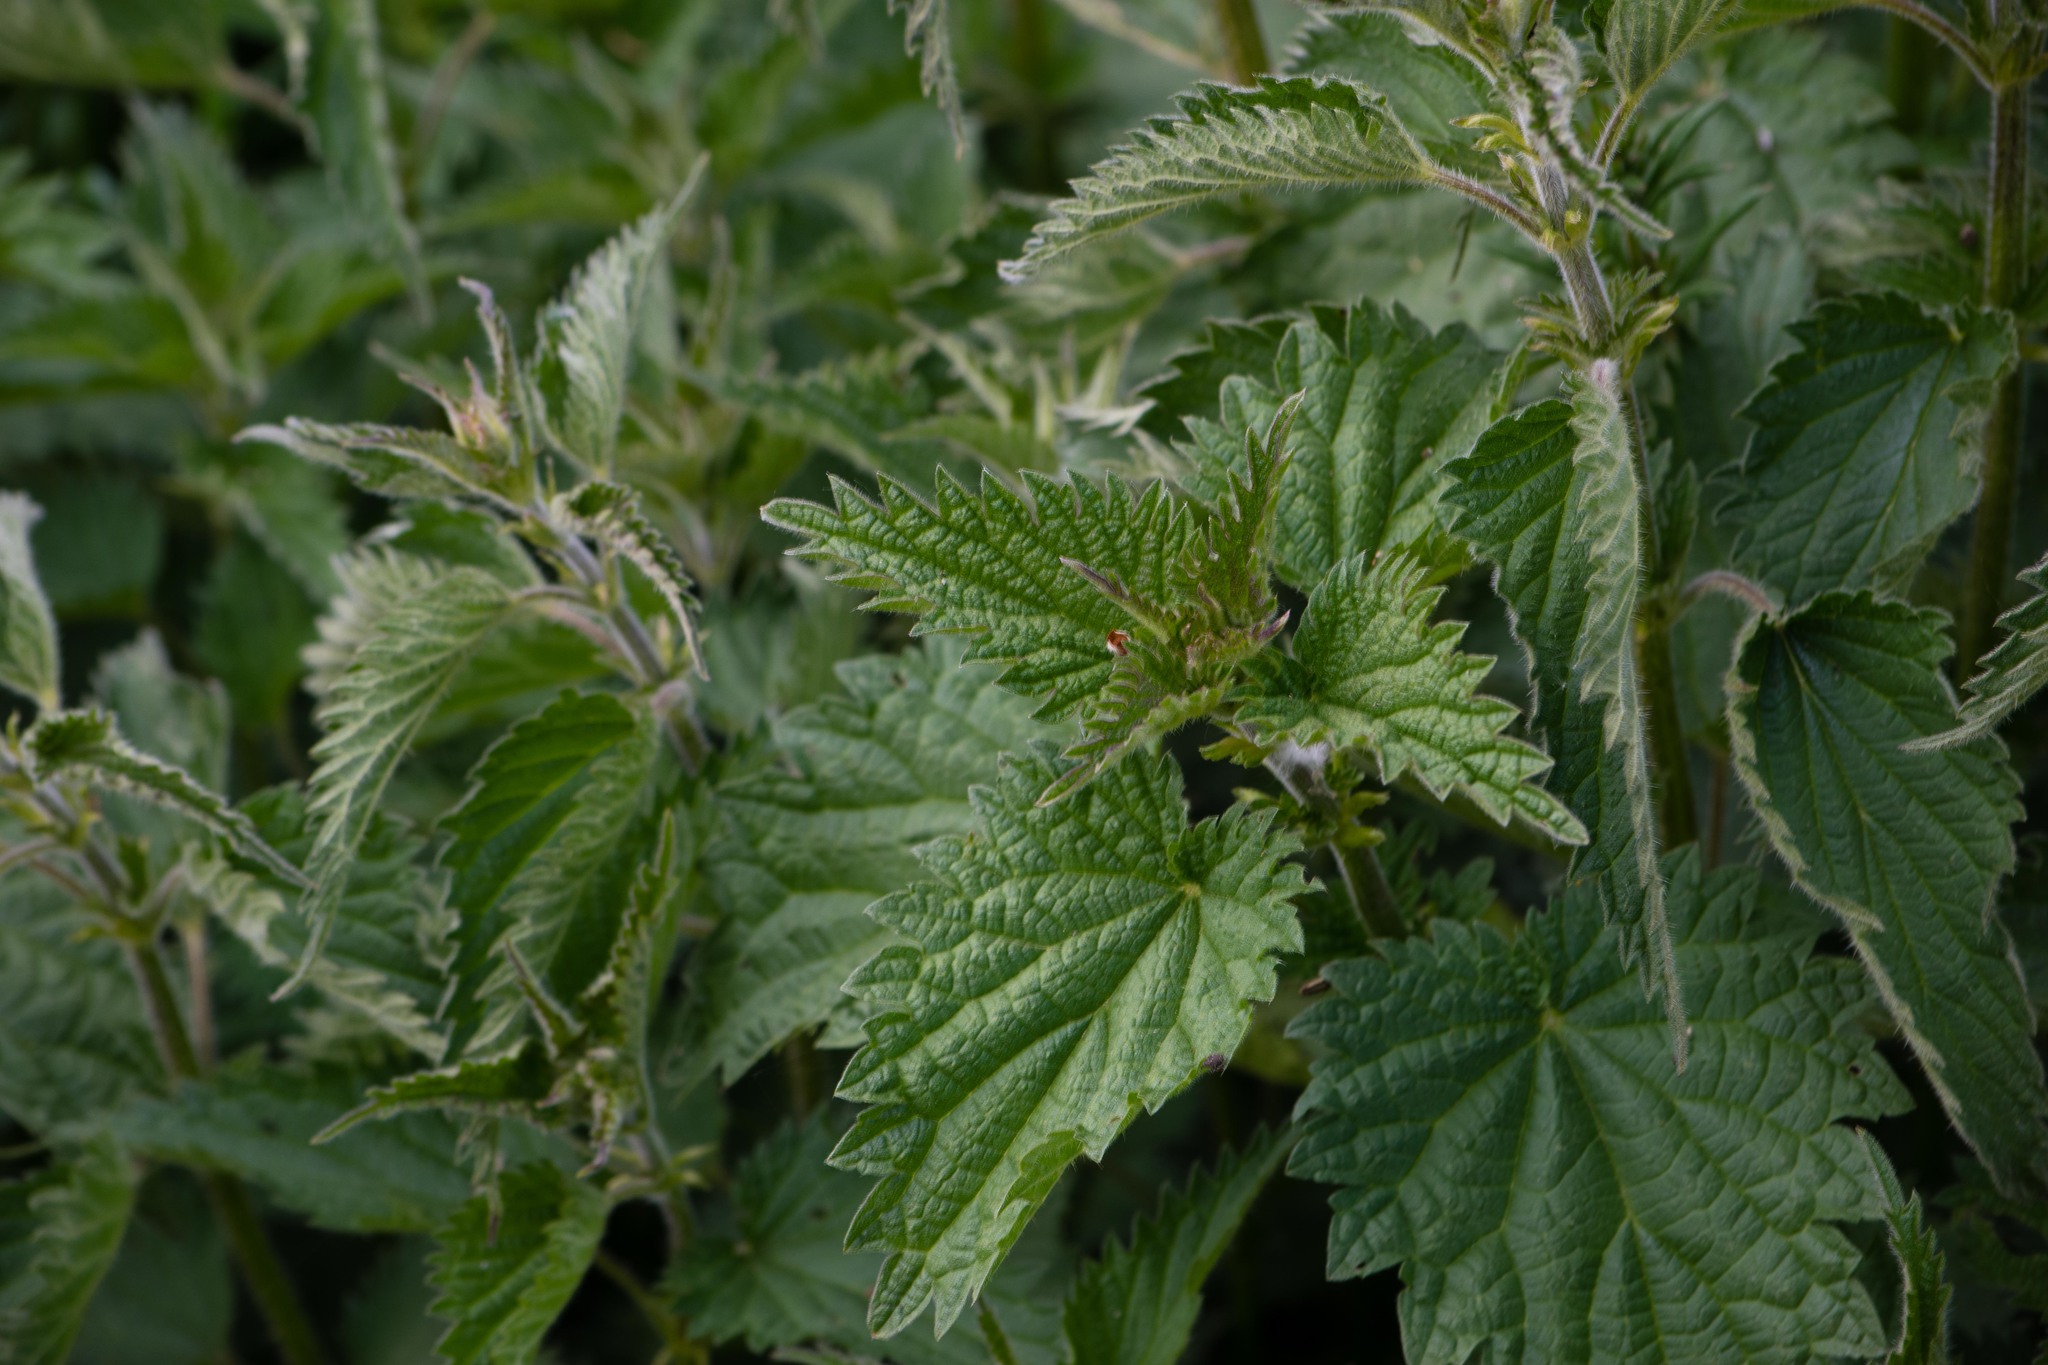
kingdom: Plantae
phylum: Tracheophyta
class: Magnoliopsida
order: Rosales
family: Urticaceae
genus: Urtica
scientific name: Urtica dioica
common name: Common nettle
